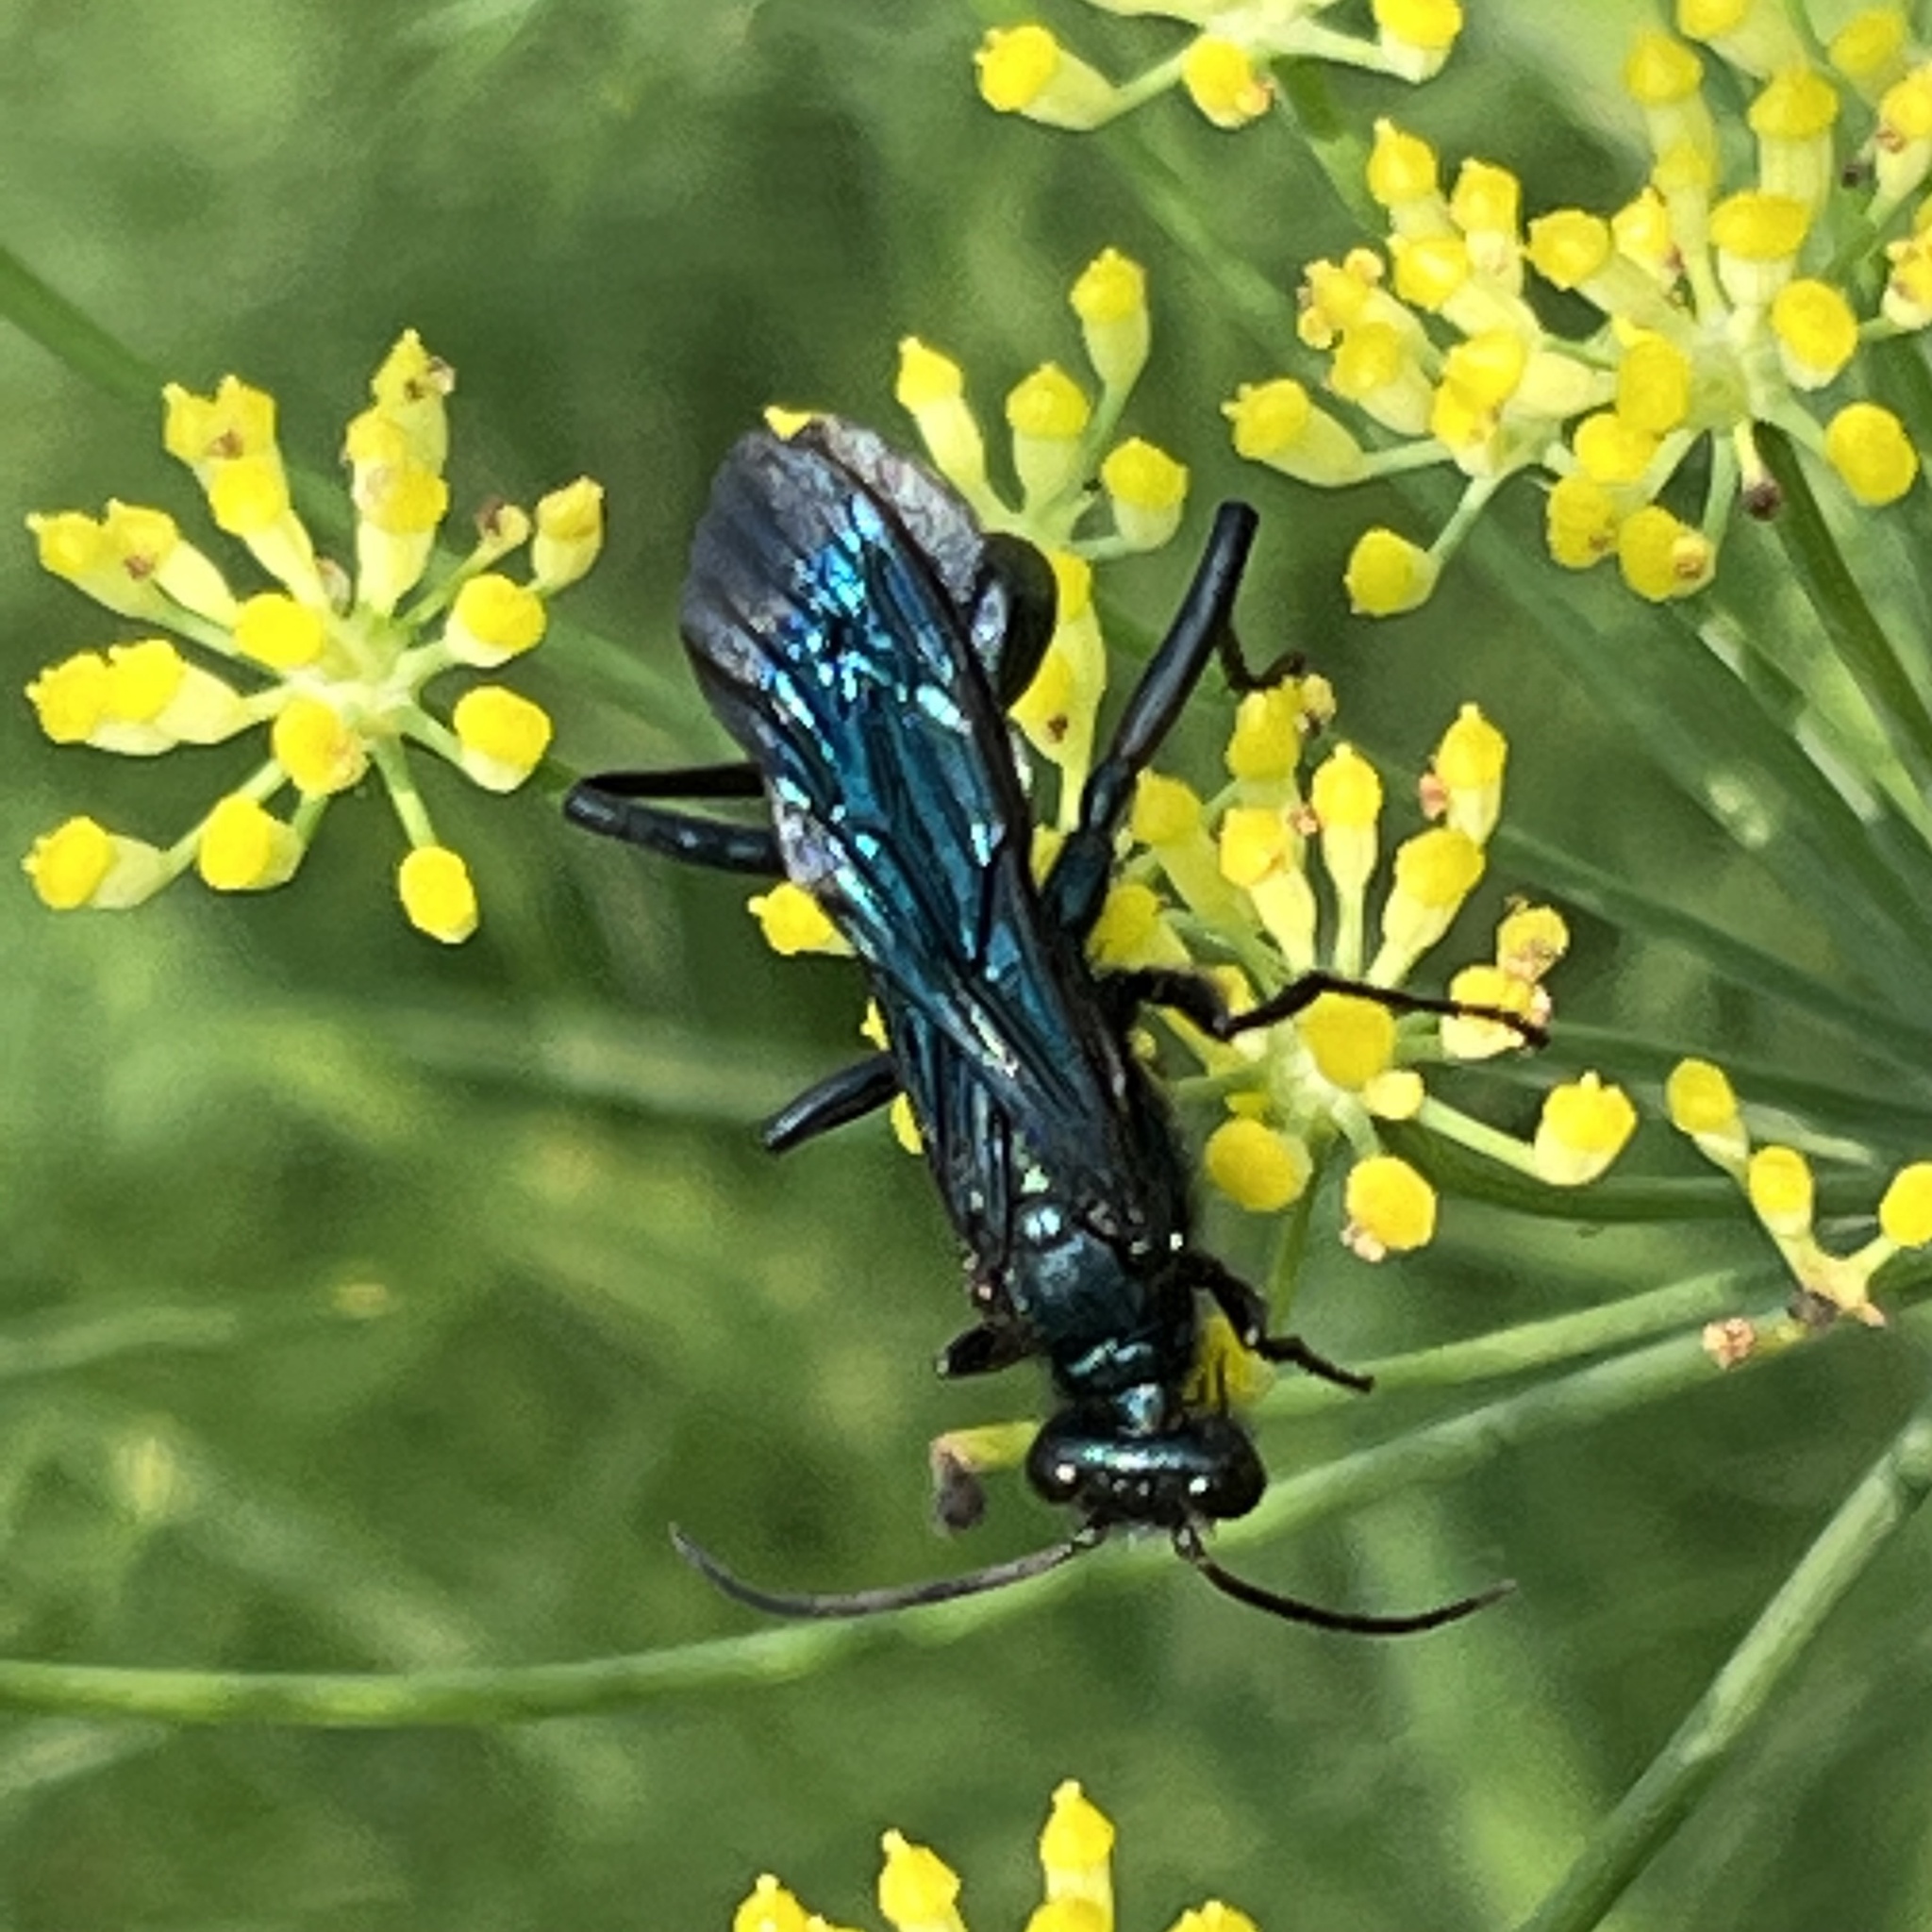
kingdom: Animalia
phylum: Arthropoda
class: Insecta
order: Hymenoptera
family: Sphecidae
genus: Chalybion
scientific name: Chalybion californicum
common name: Mud dauber
